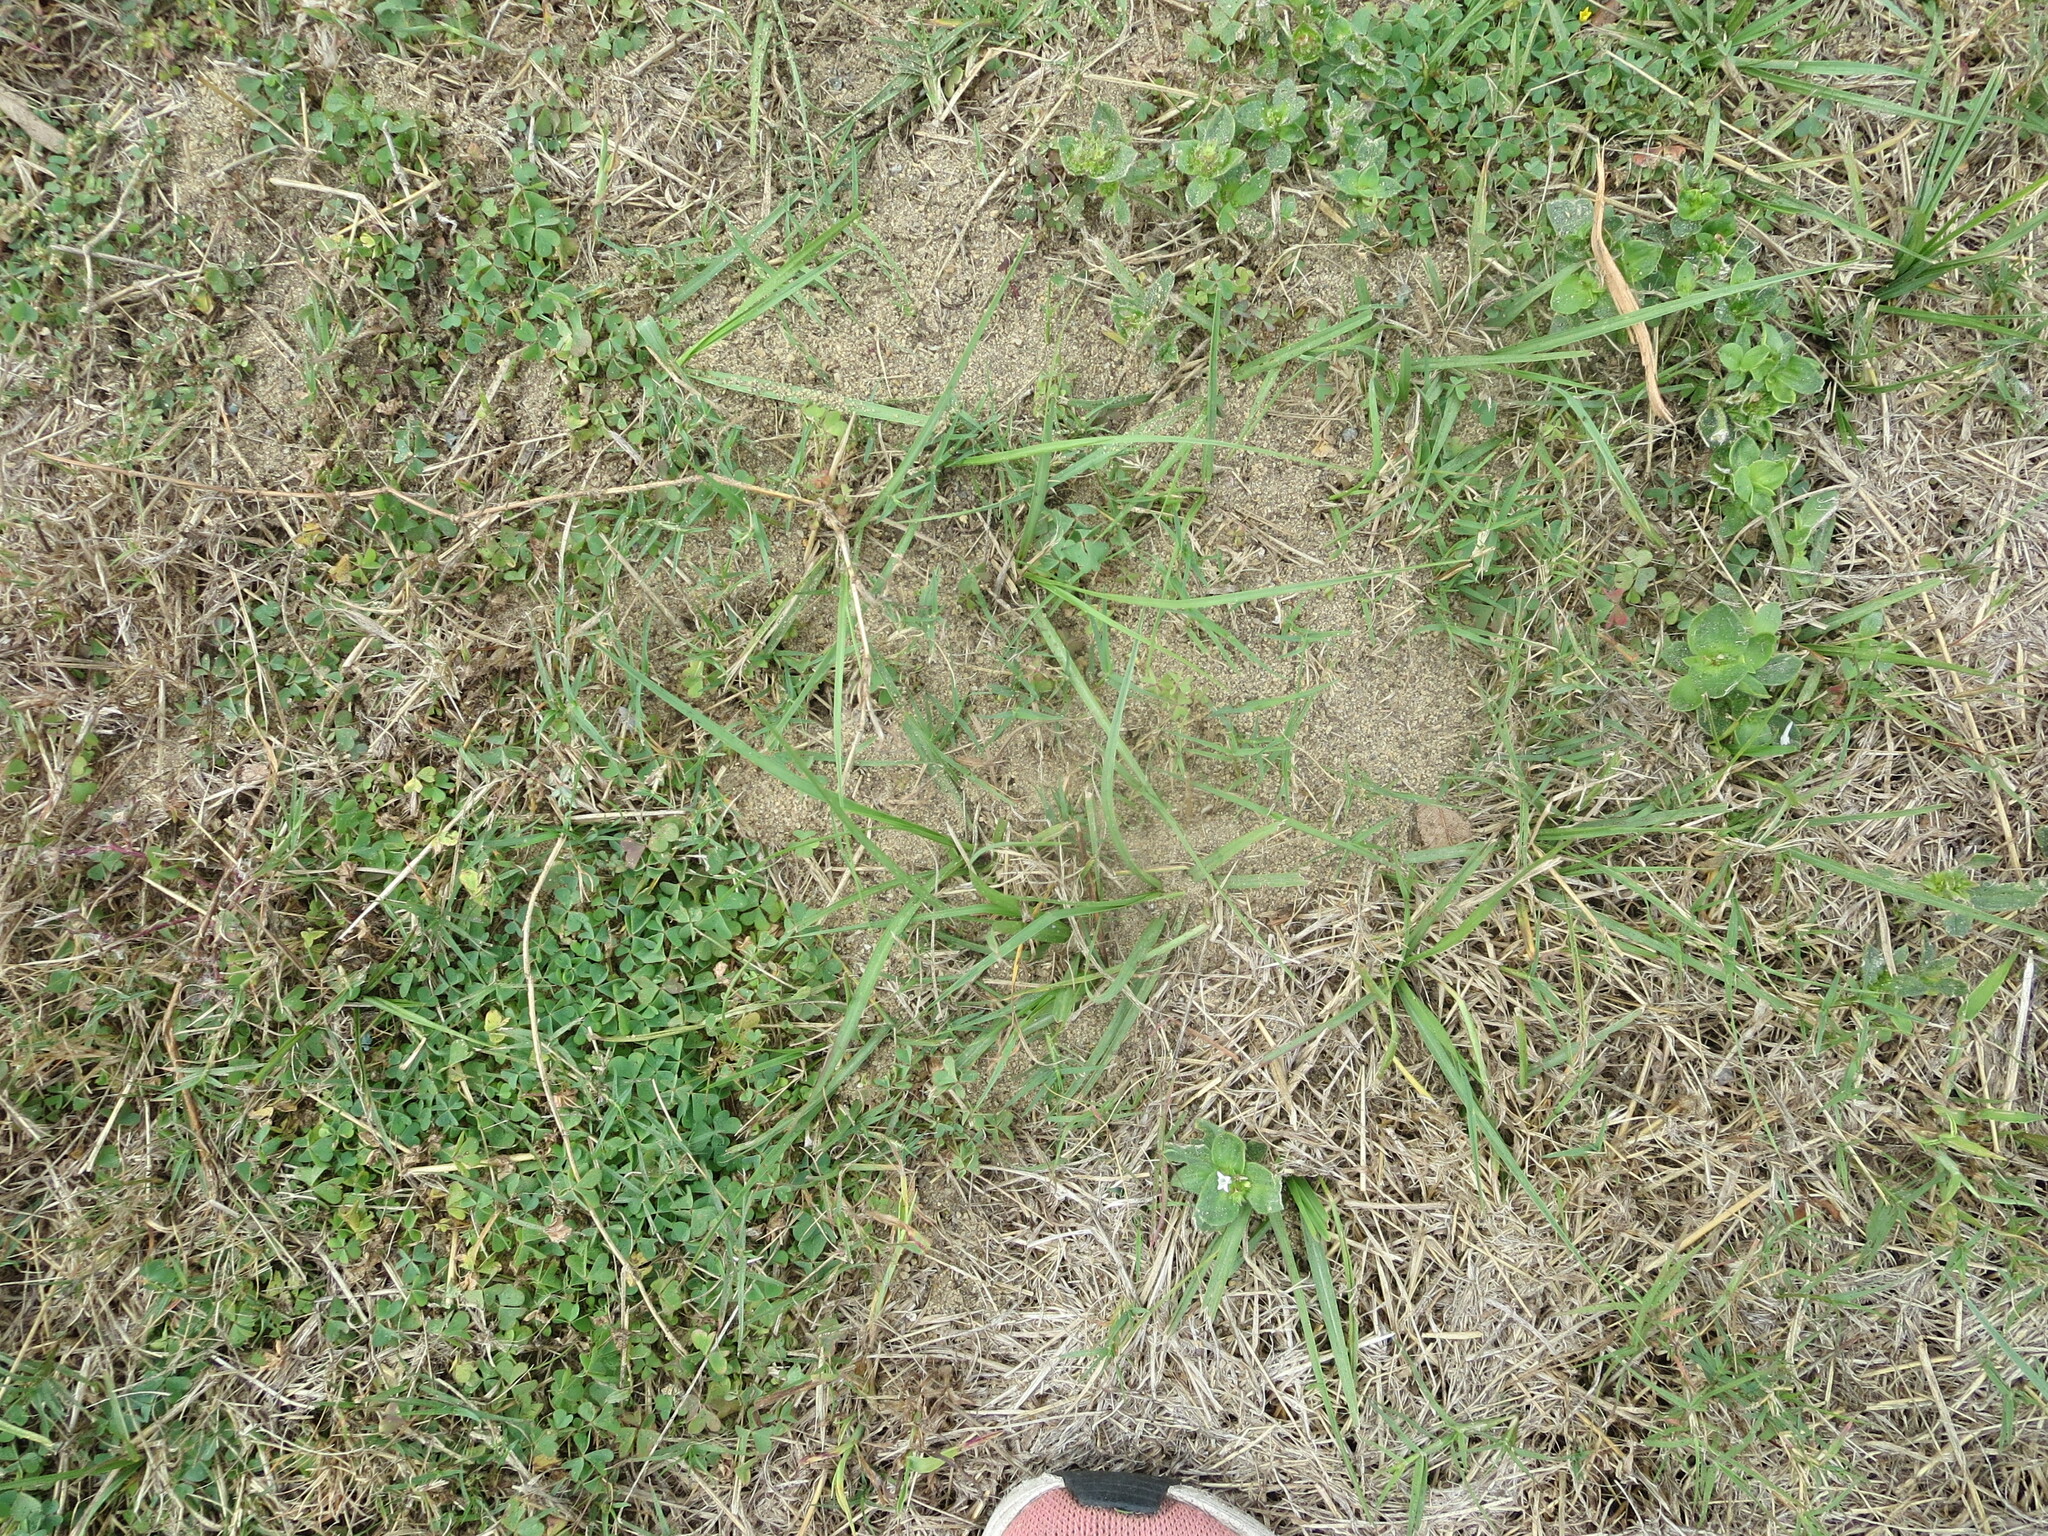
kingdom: Animalia
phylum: Arthropoda
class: Insecta
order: Hymenoptera
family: Formicidae
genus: Solenopsis
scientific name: Solenopsis invicta
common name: Red imported fire ant
